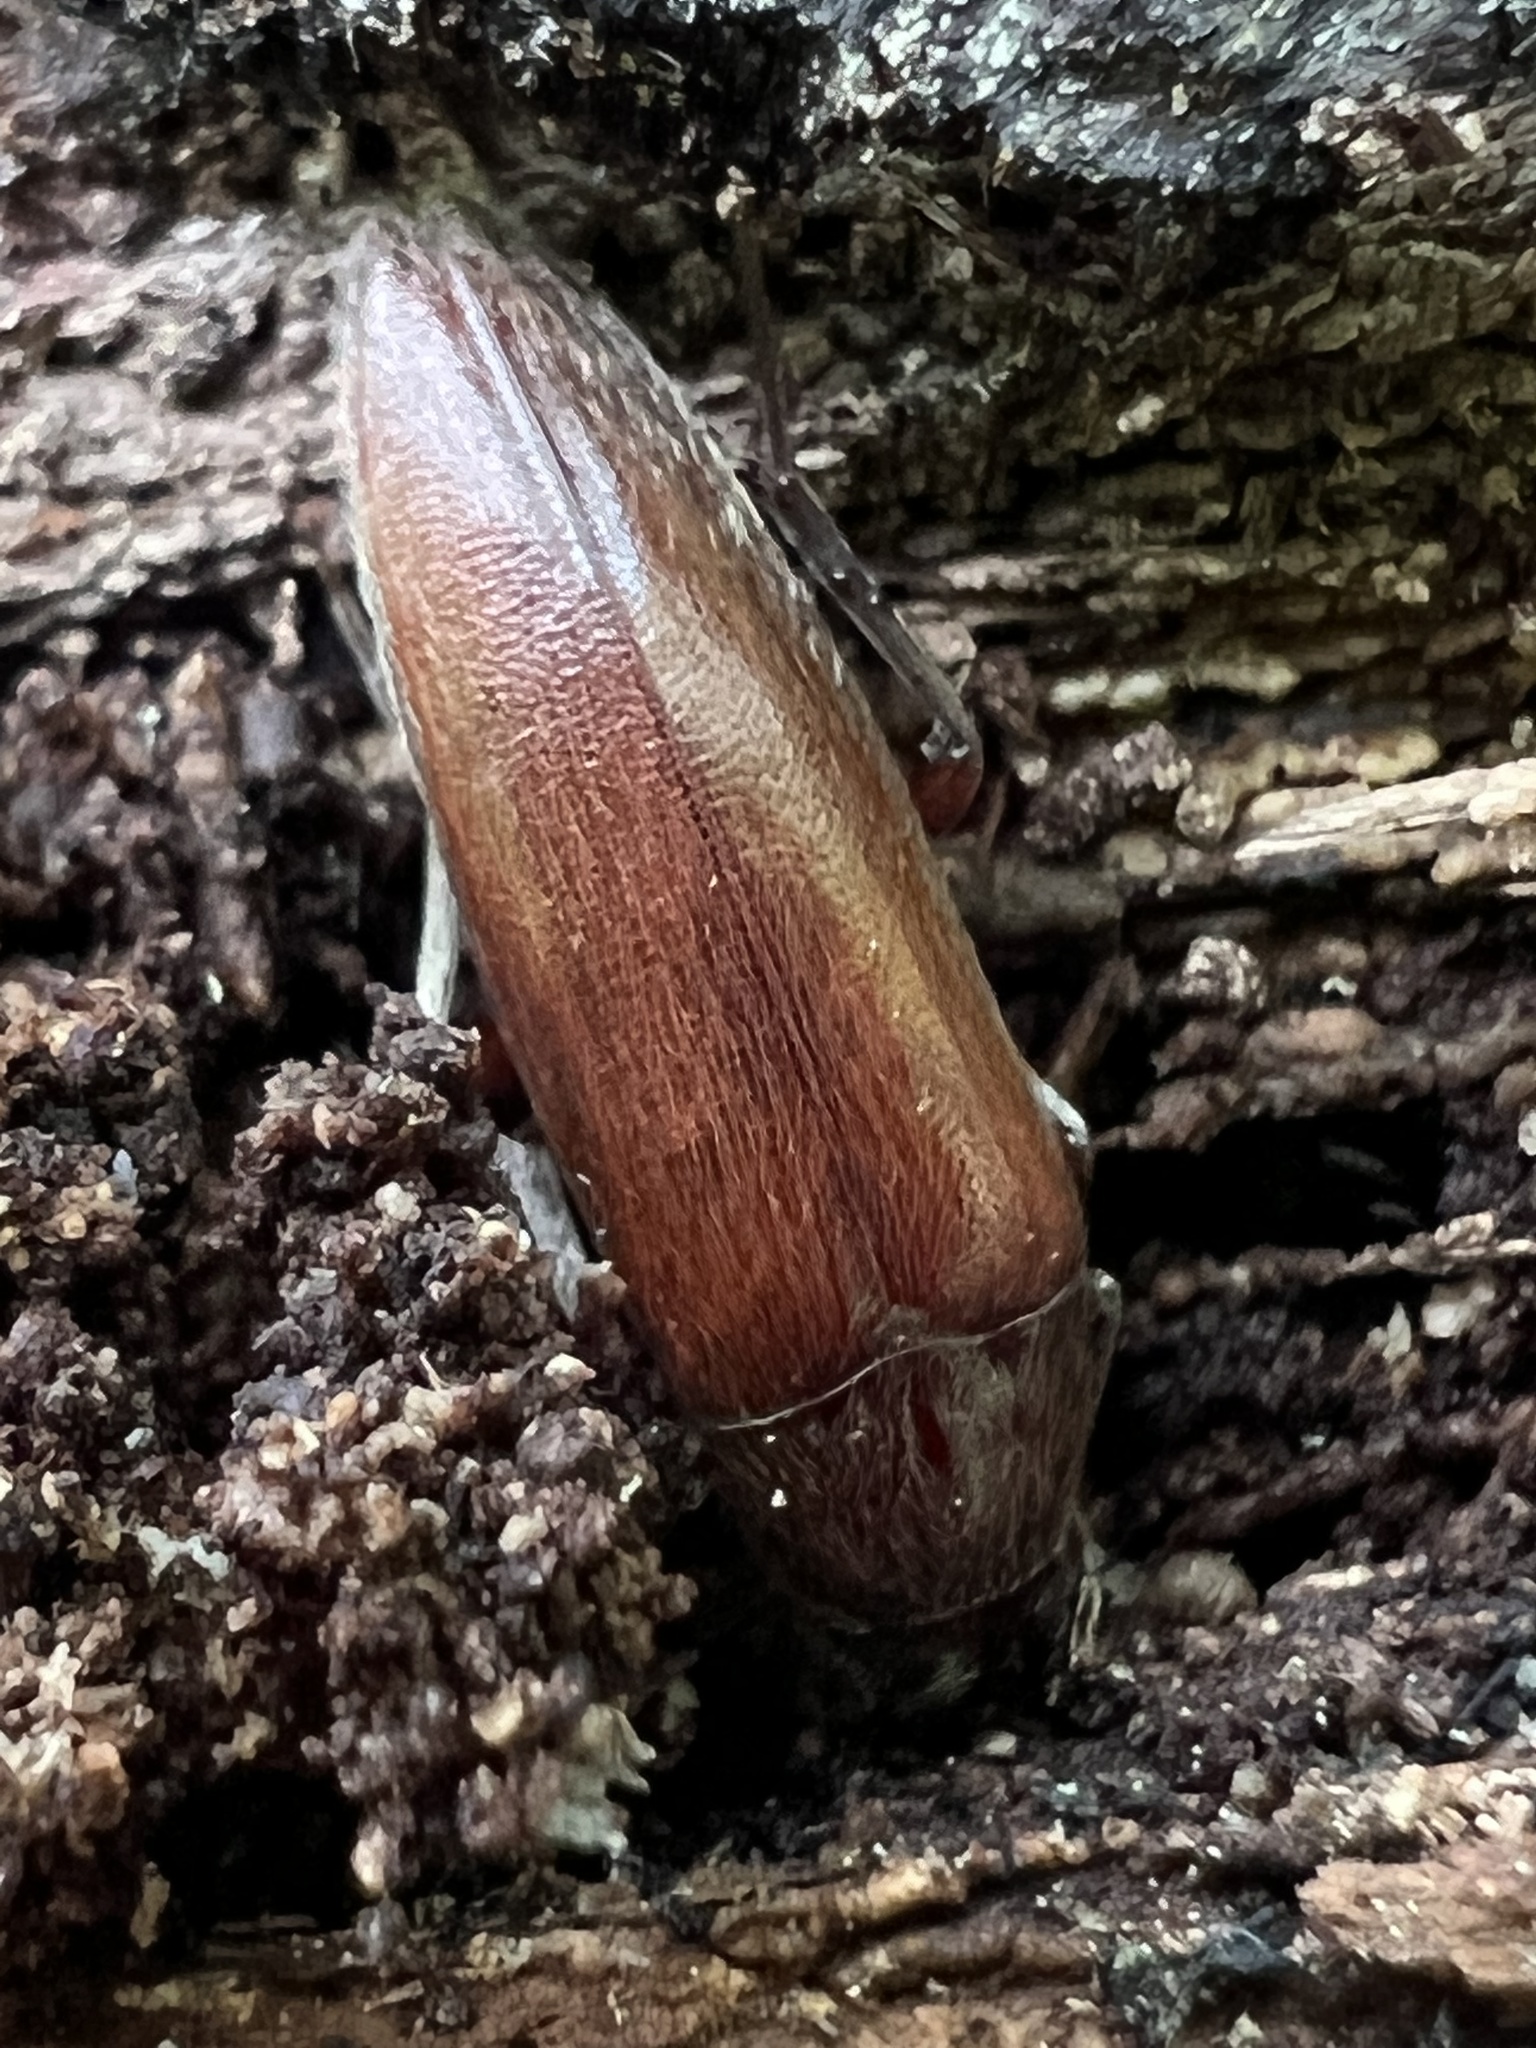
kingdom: Animalia
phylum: Arthropoda
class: Insecta
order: Coleoptera
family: Synchroidae
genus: Synchroa
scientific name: Synchroa punctata
